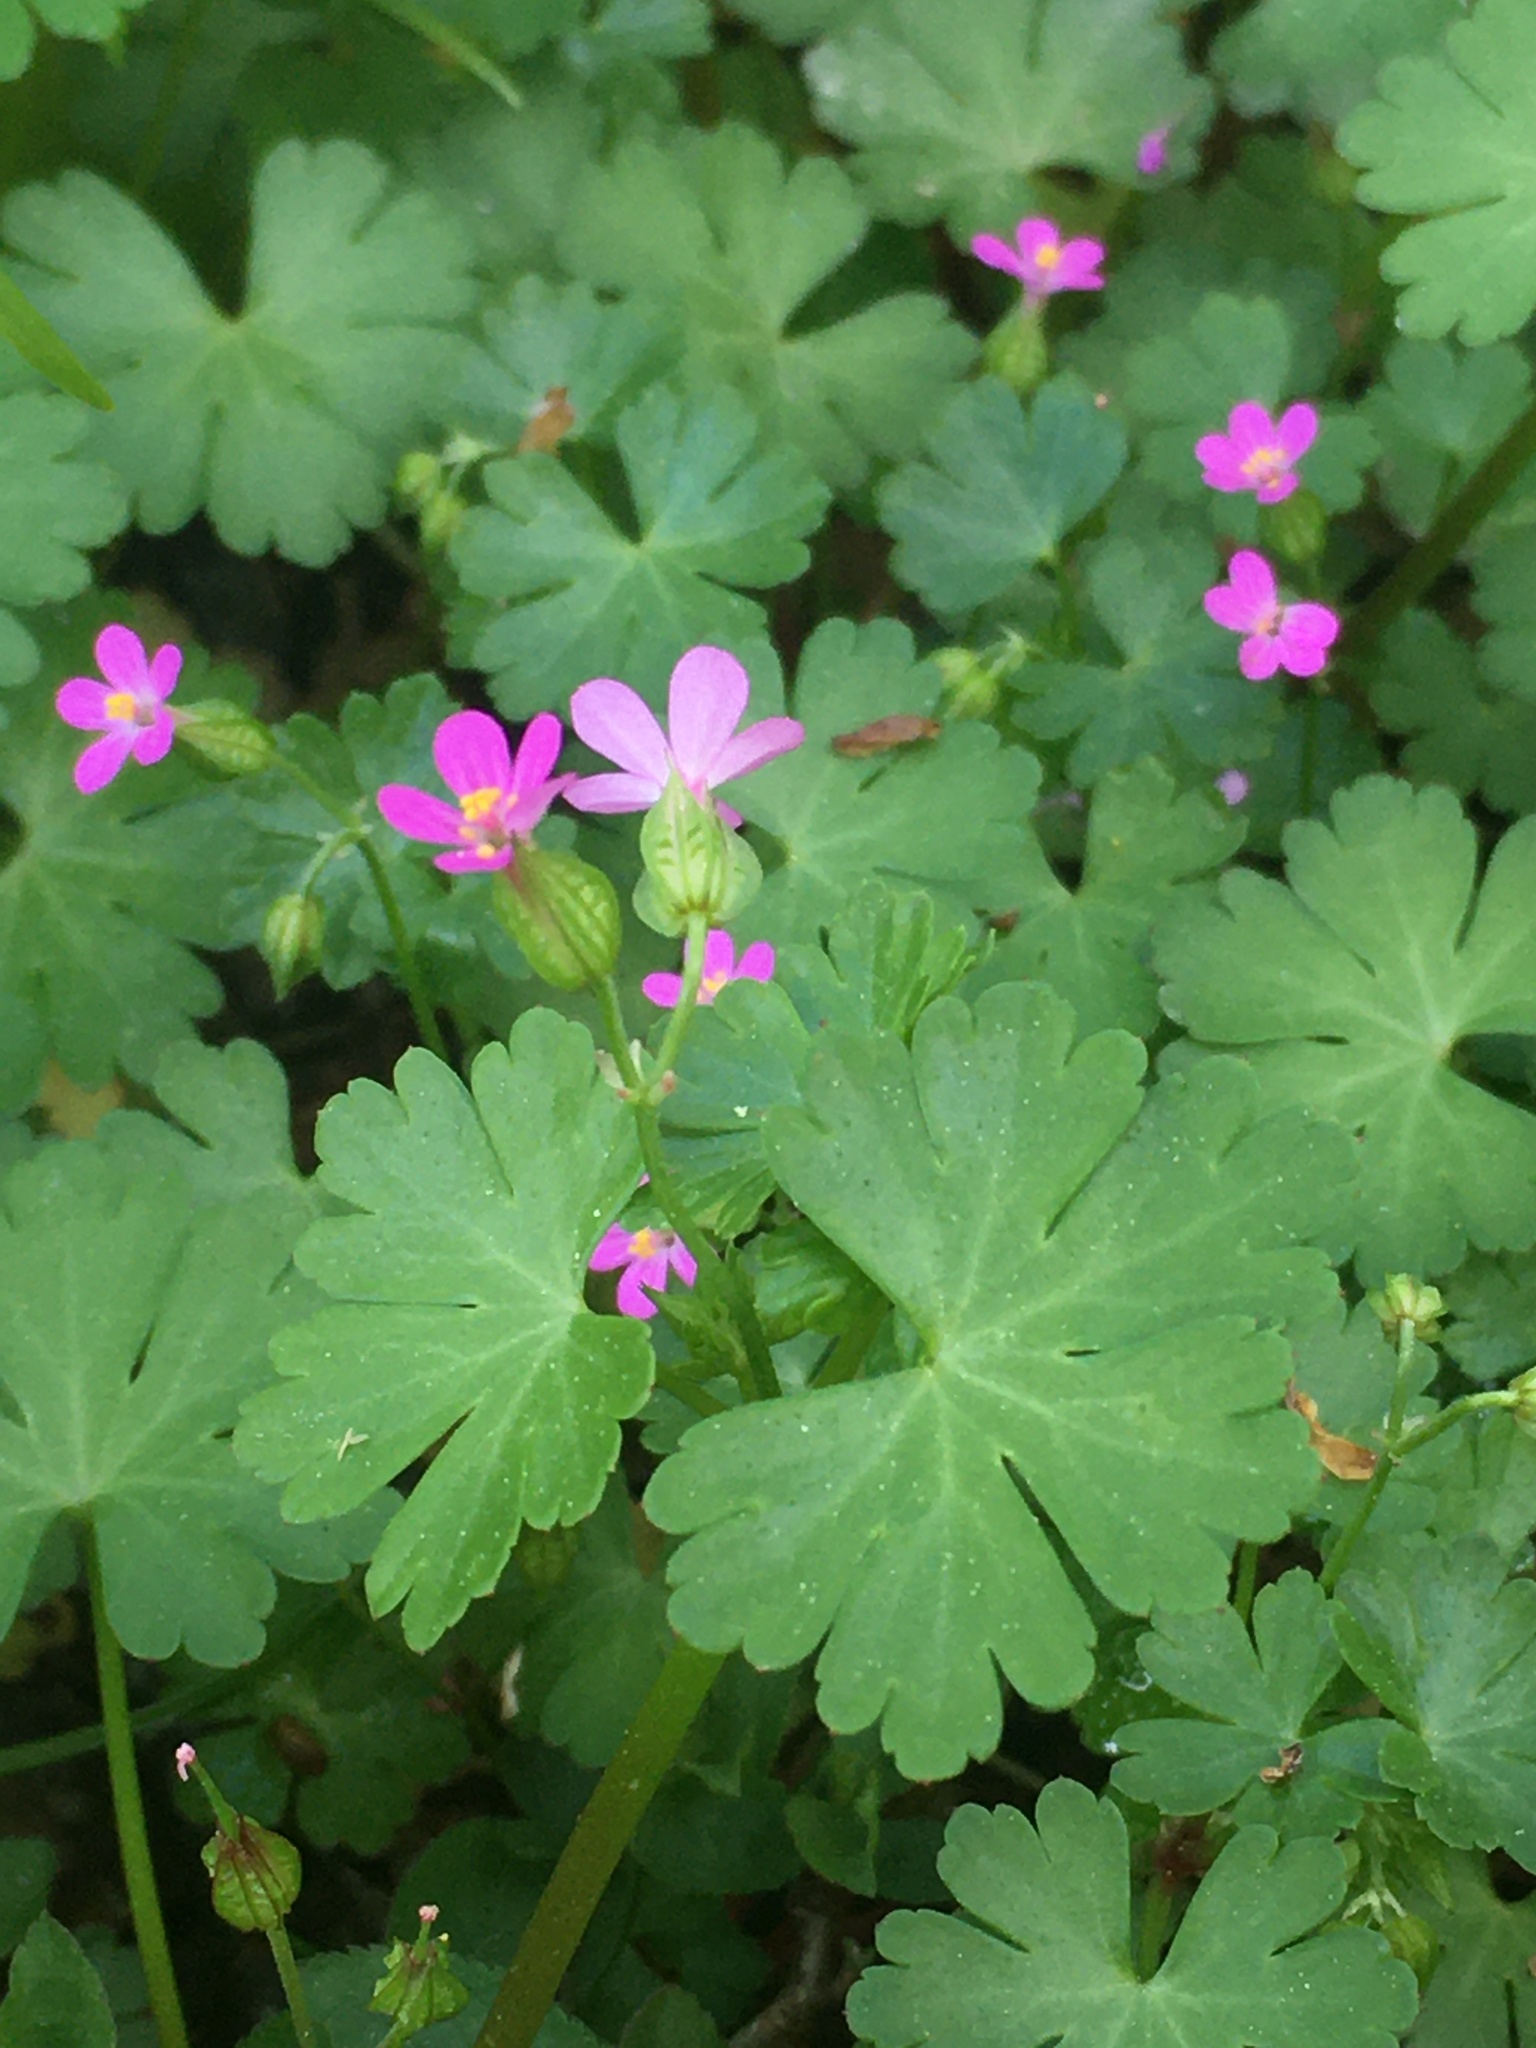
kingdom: Plantae
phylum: Tracheophyta
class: Magnoliopsida
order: Geraniales
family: Geraniaceae
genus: Geranium
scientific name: Geranium lucidum
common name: Shining crane's-bill
